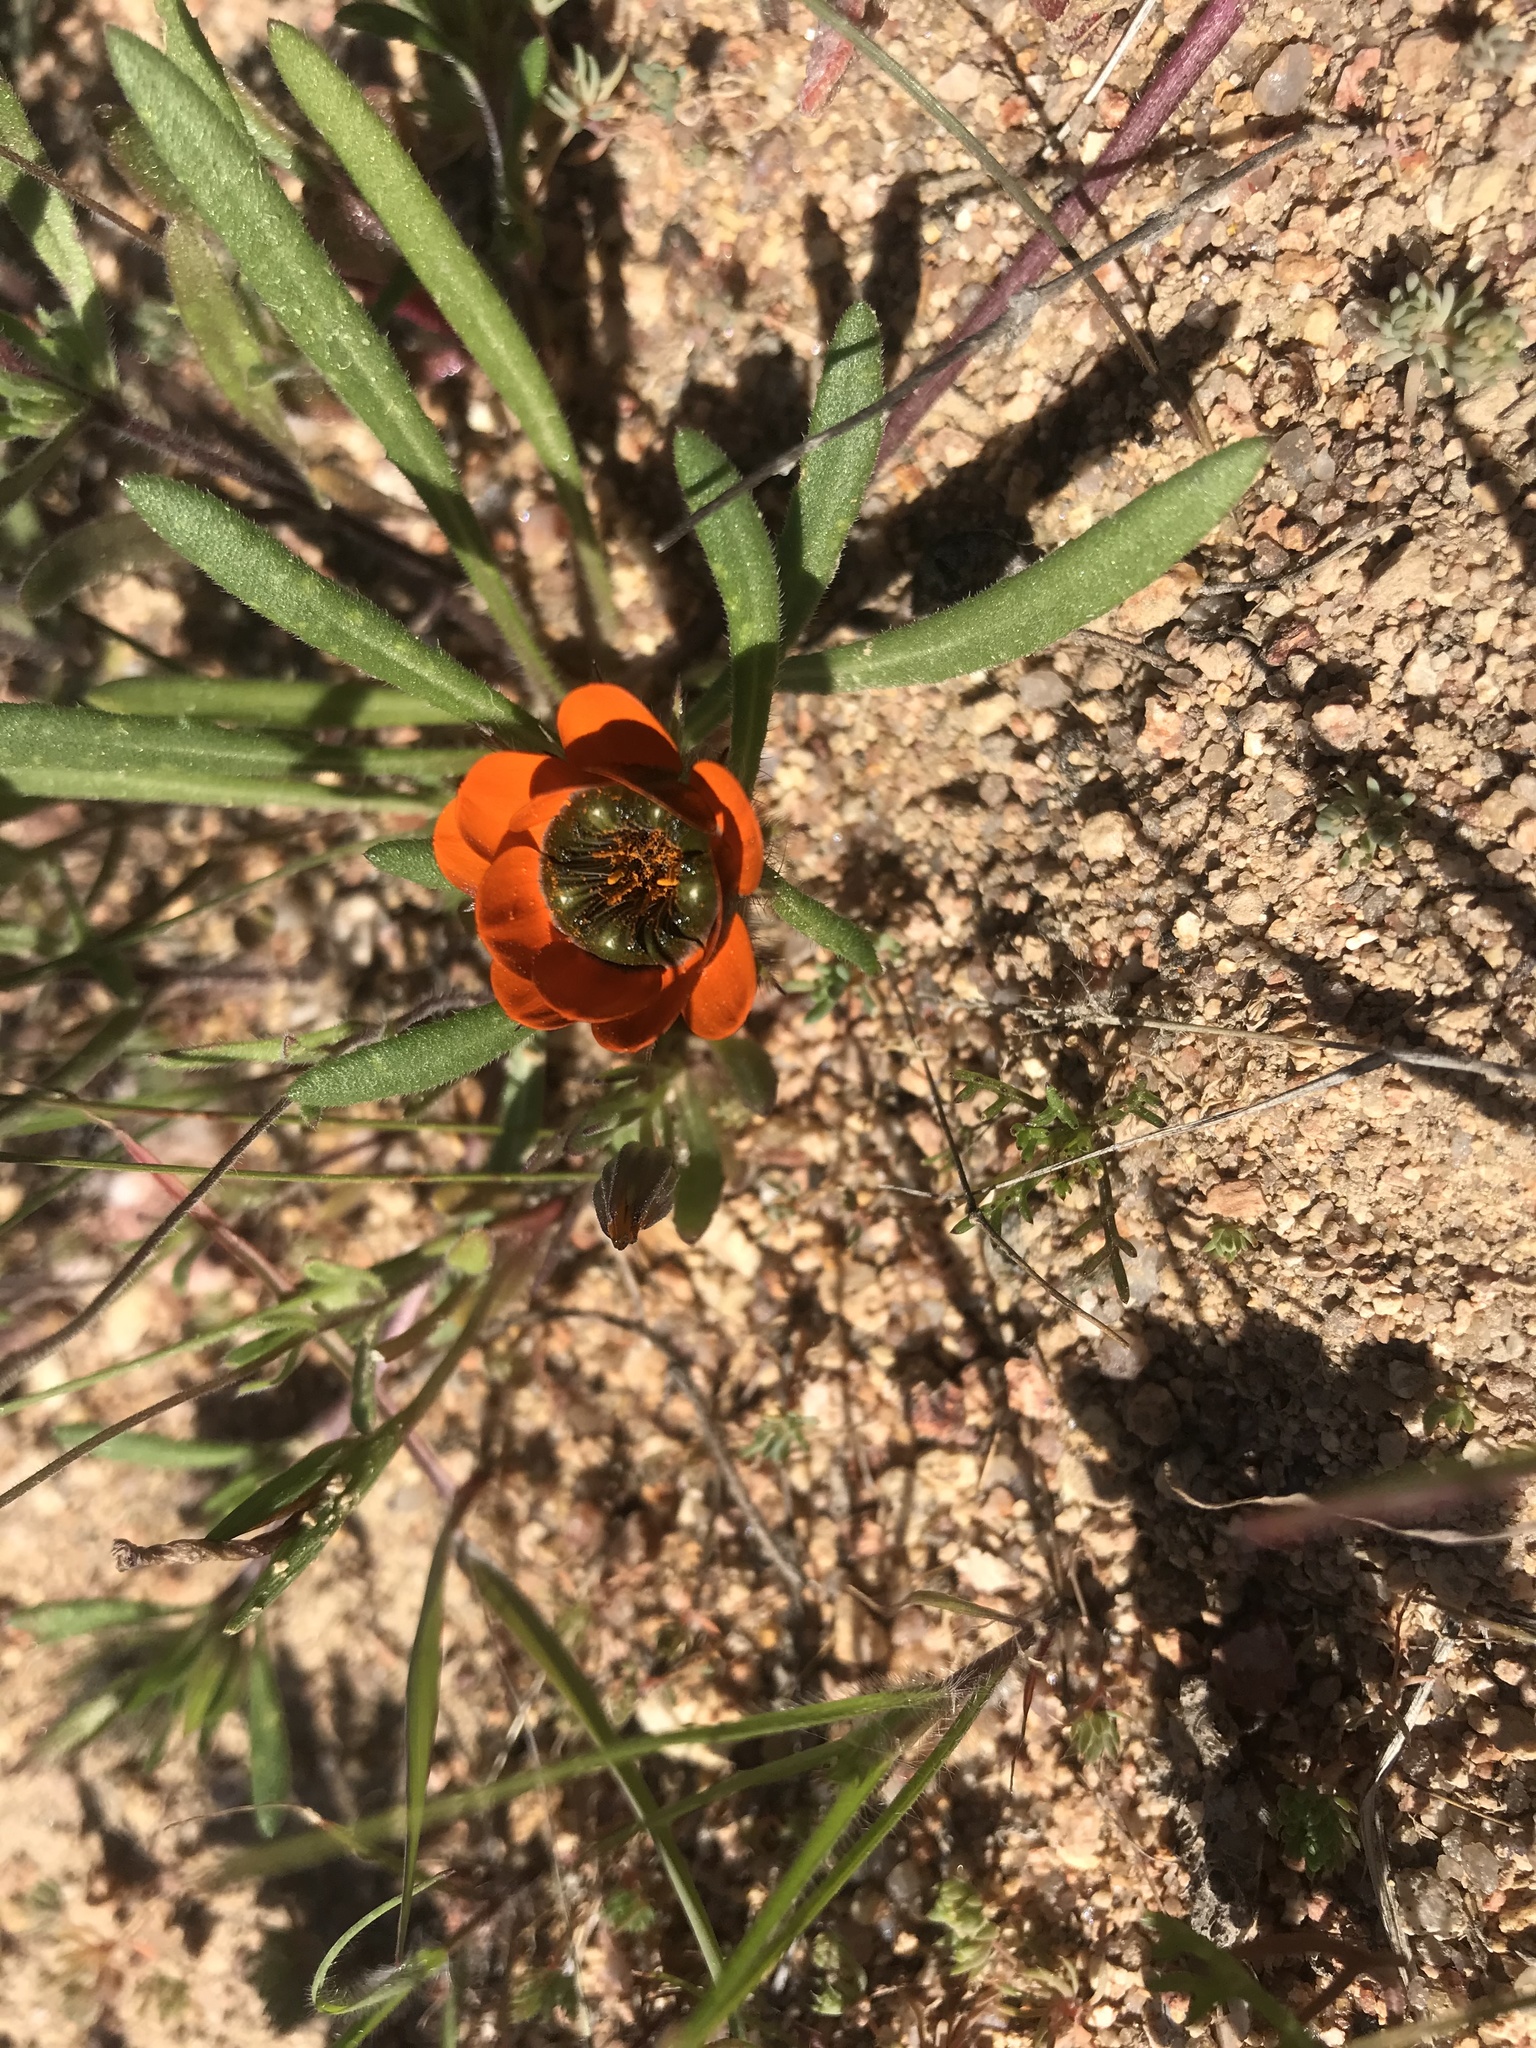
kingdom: Plantae
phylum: Tracheophyta
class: Magnoliopsida
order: Asterales
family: Asteraceae
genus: Gorteria
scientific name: Gorteria diffusa
